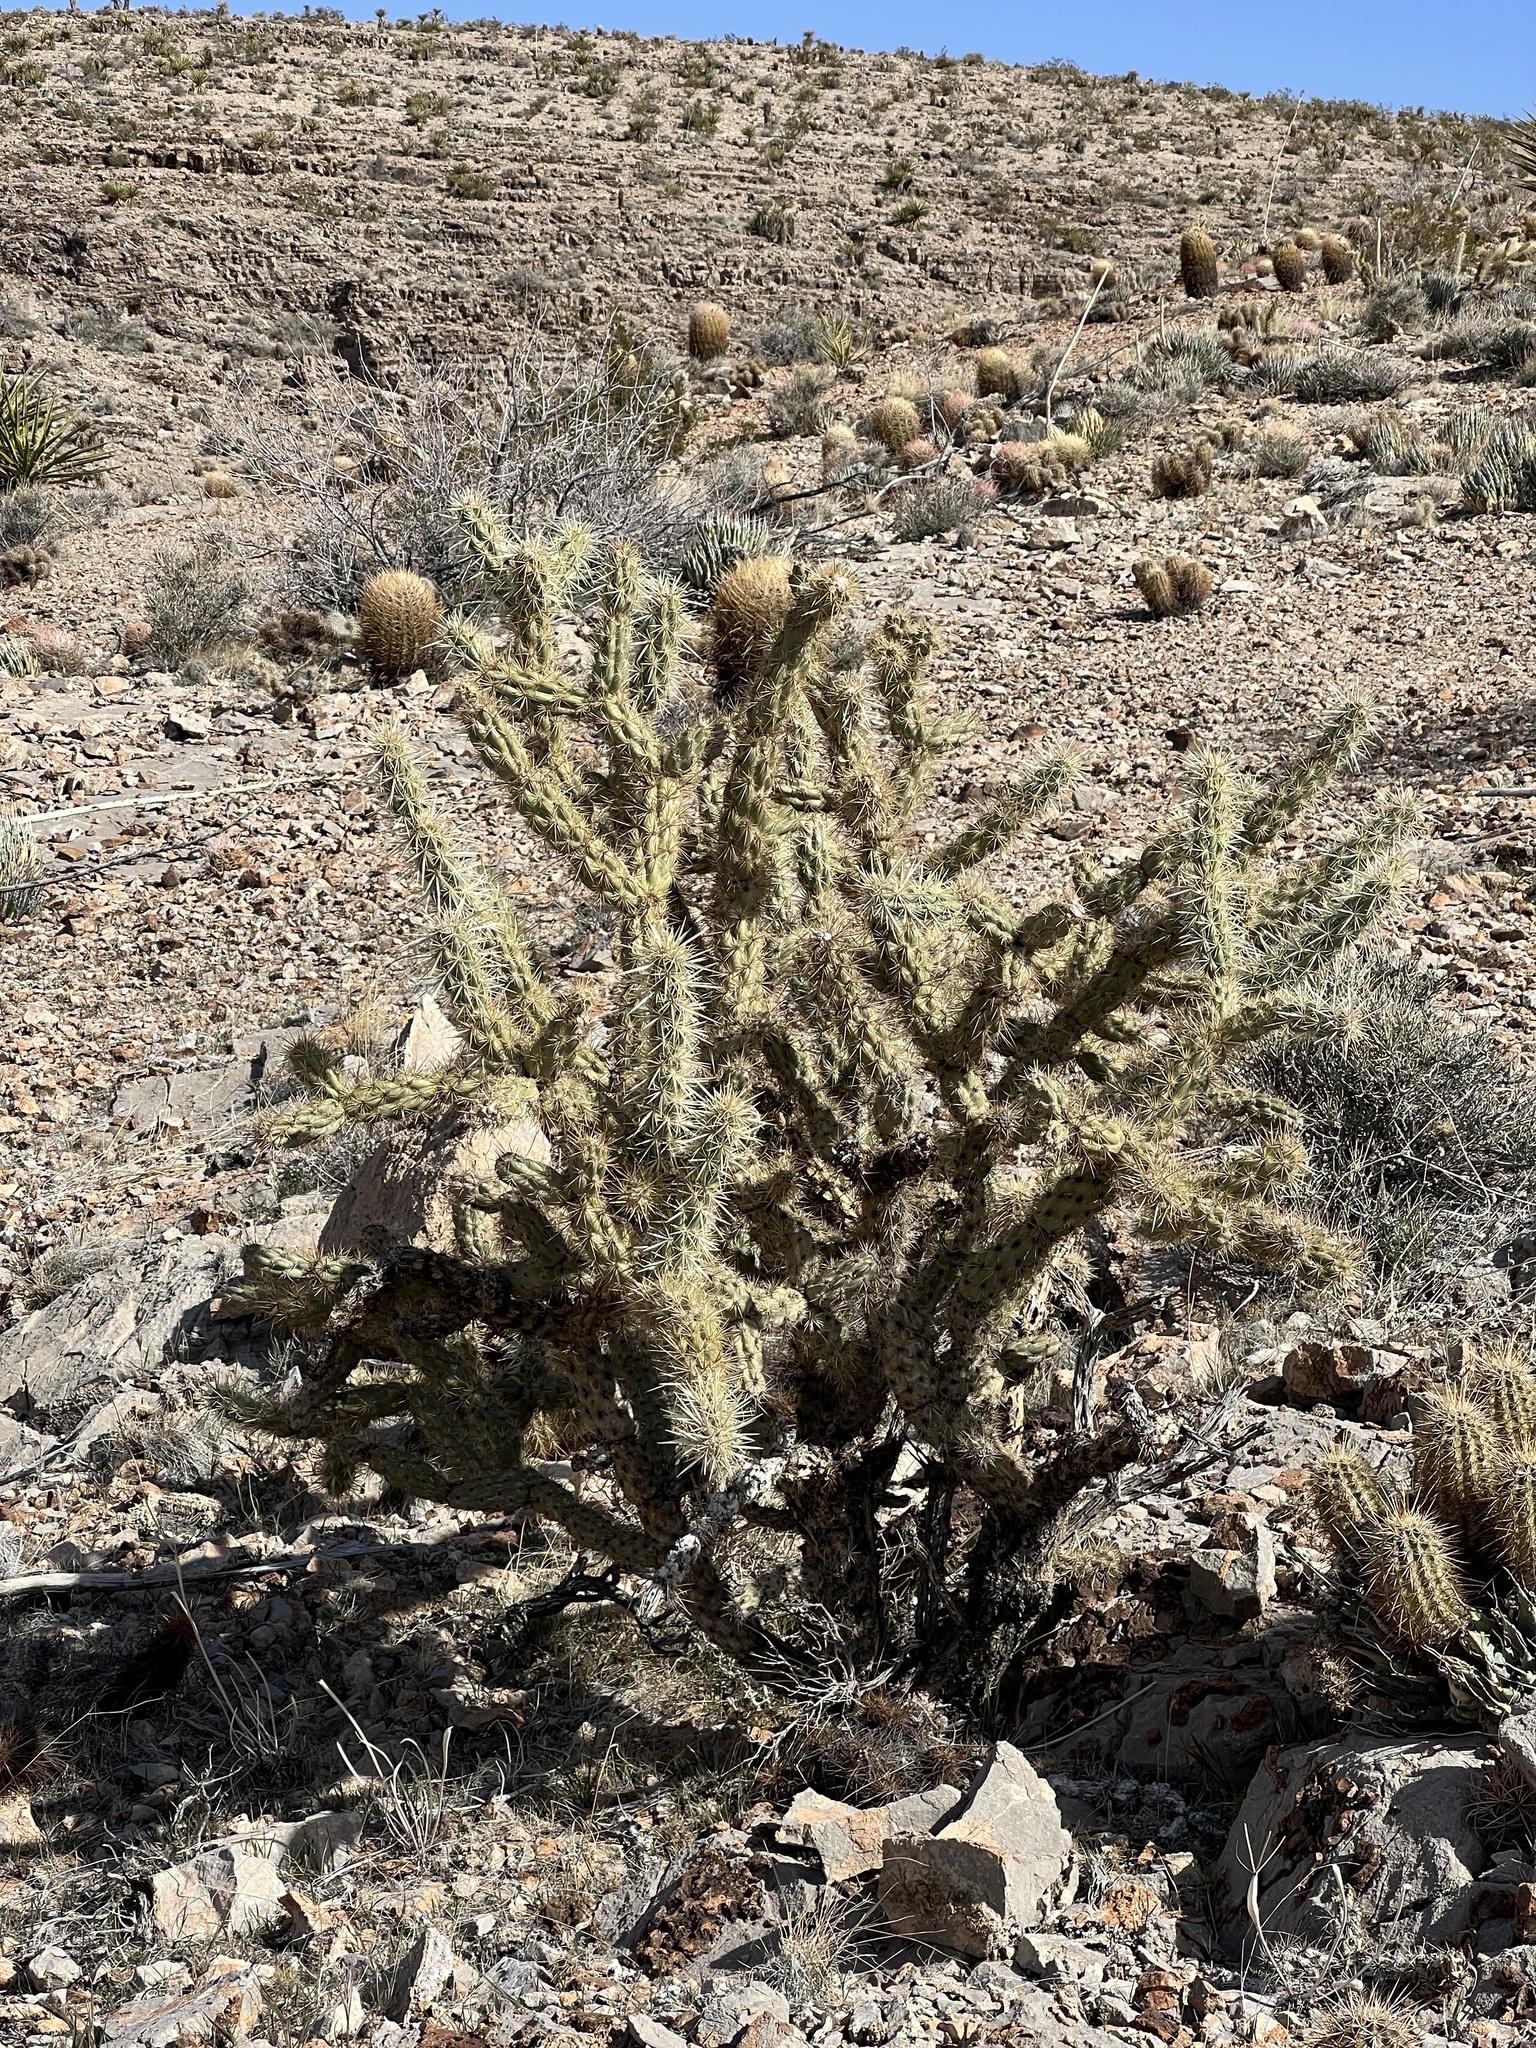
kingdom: Plantae
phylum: Tracheophyta
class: Magnoliopsida
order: Caryophyllales
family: Cactaceae
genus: Cylindropuntia
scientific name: Cylindropuntia acanthocarpa
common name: Buckhorn cholla
